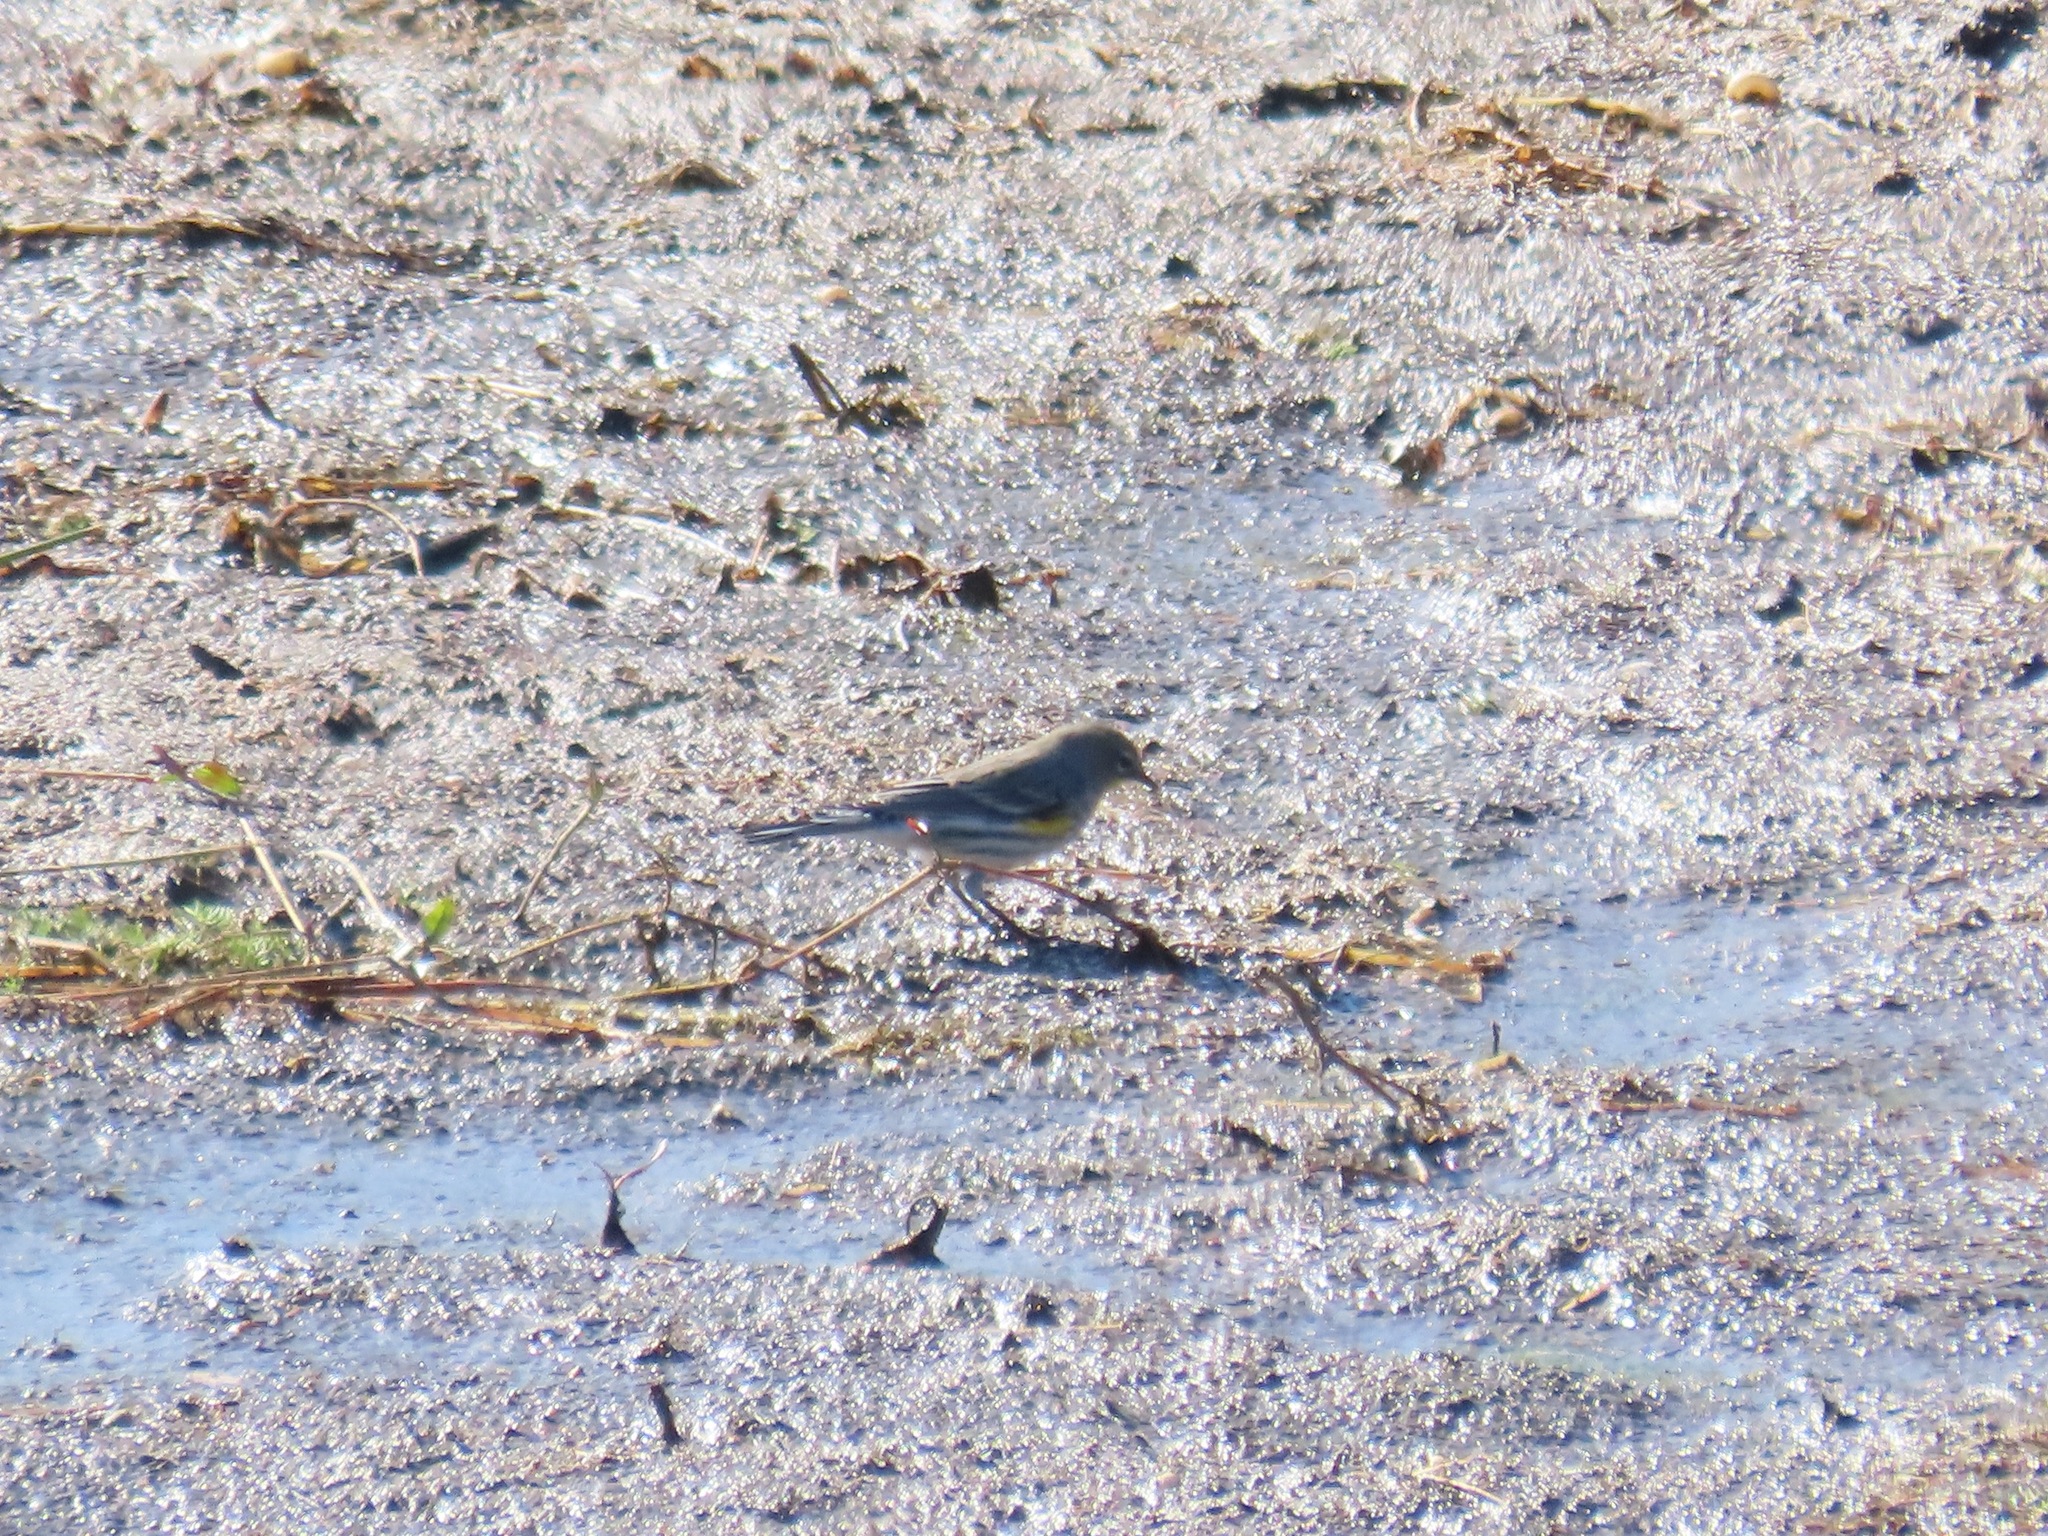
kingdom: Animalia
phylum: Chordata
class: Aves
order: Passeriformes
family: Parulidae
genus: Setophaga
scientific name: Setophaga coronata
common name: Myrtle warbler
